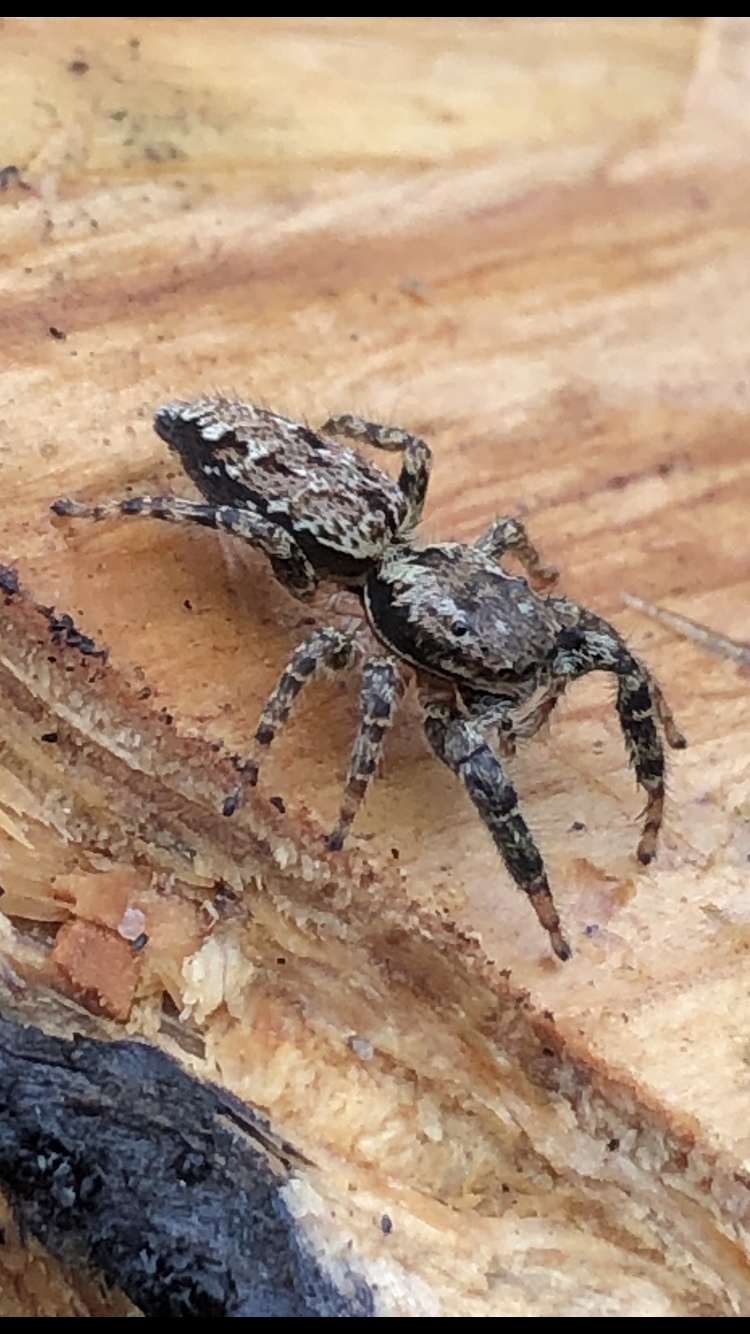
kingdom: Animalia
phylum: Arthropoda
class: Arachnida
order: Araneae
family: Salticidae
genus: Marpissa
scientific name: Marpissa muscosa
